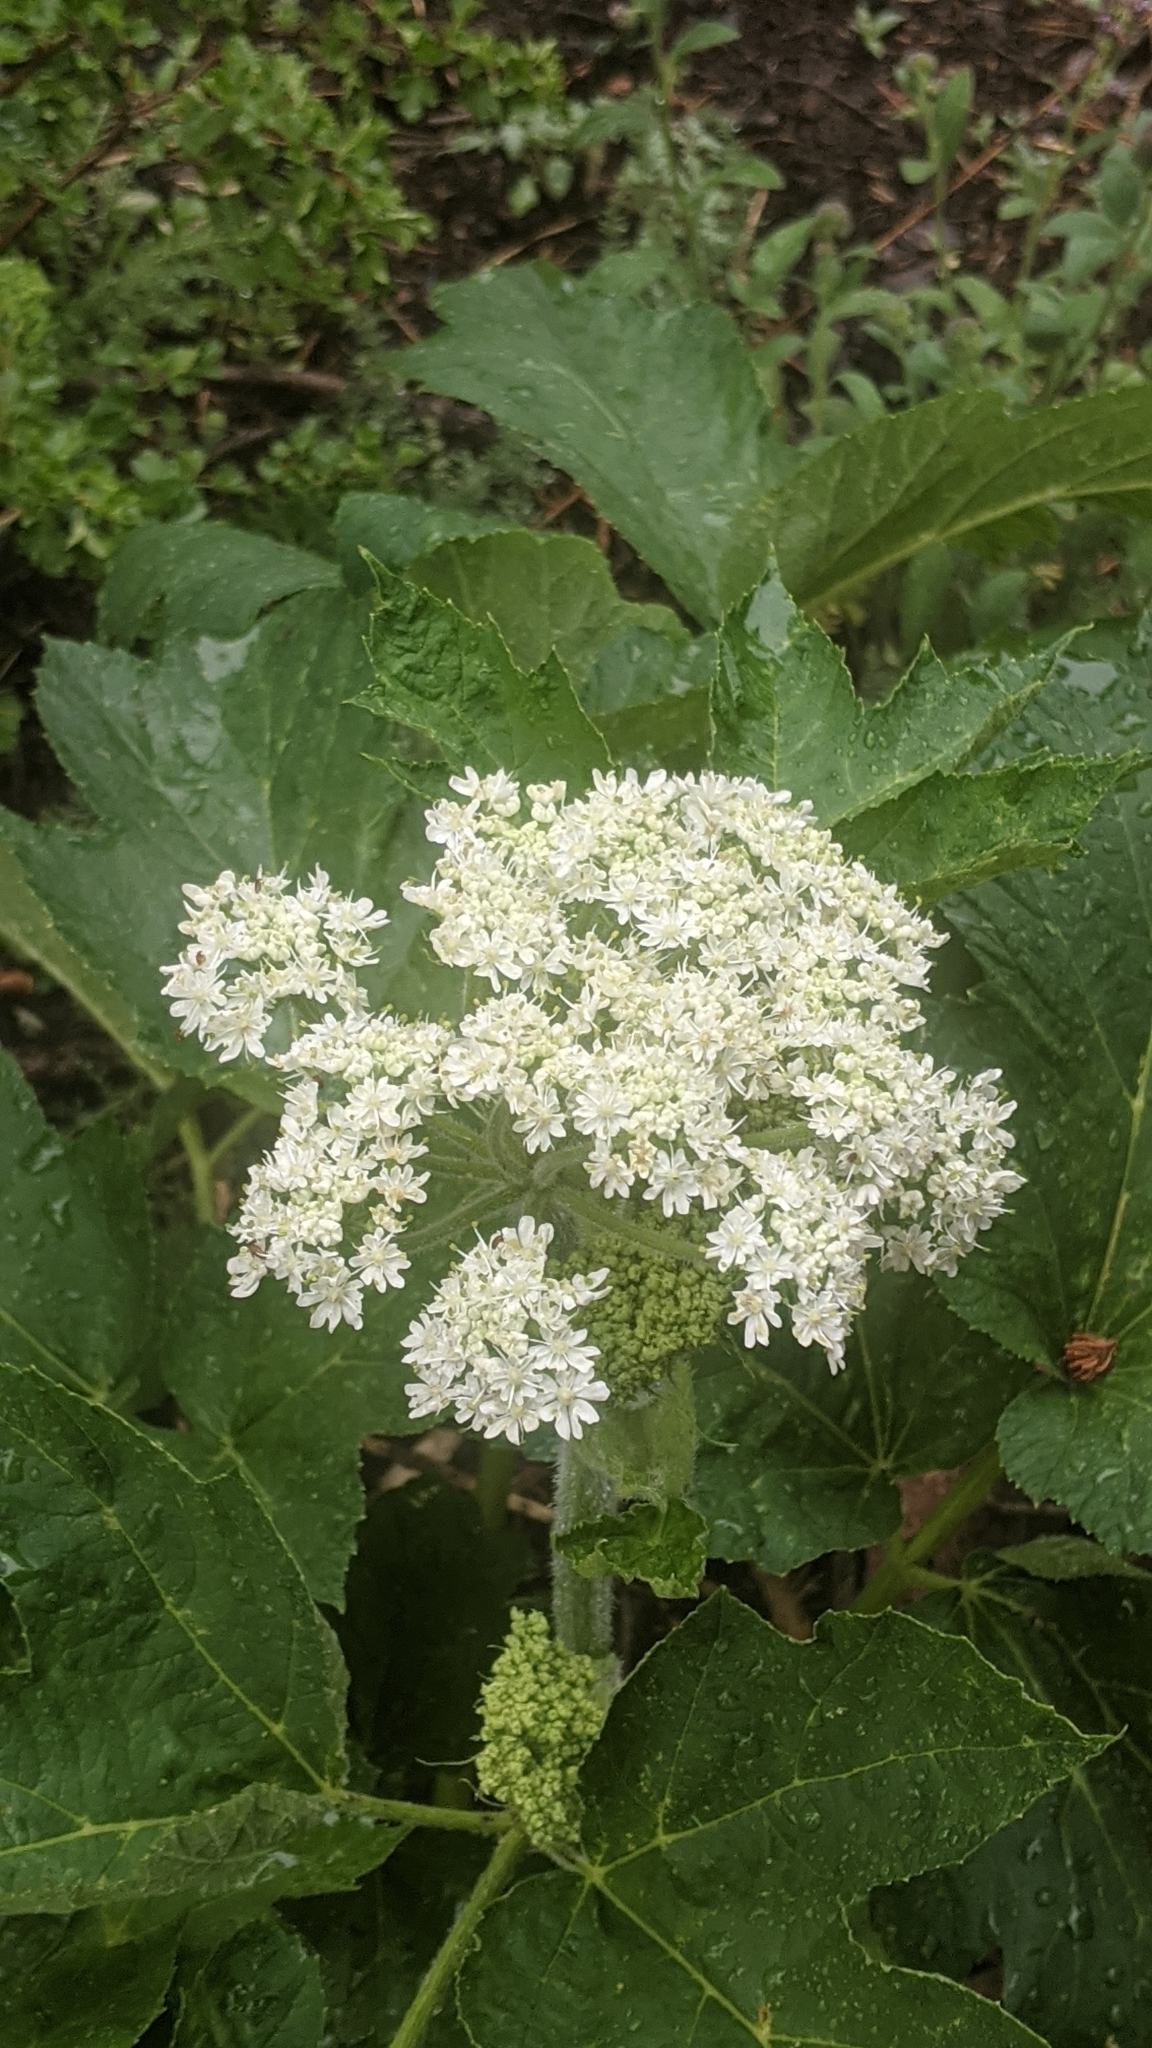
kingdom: Plantae
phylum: Tracheophyta
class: Magnoliopsida
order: Apiales
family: Apiaceae
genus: Heracleum
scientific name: Heracleum maximum
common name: American cow parsnip
